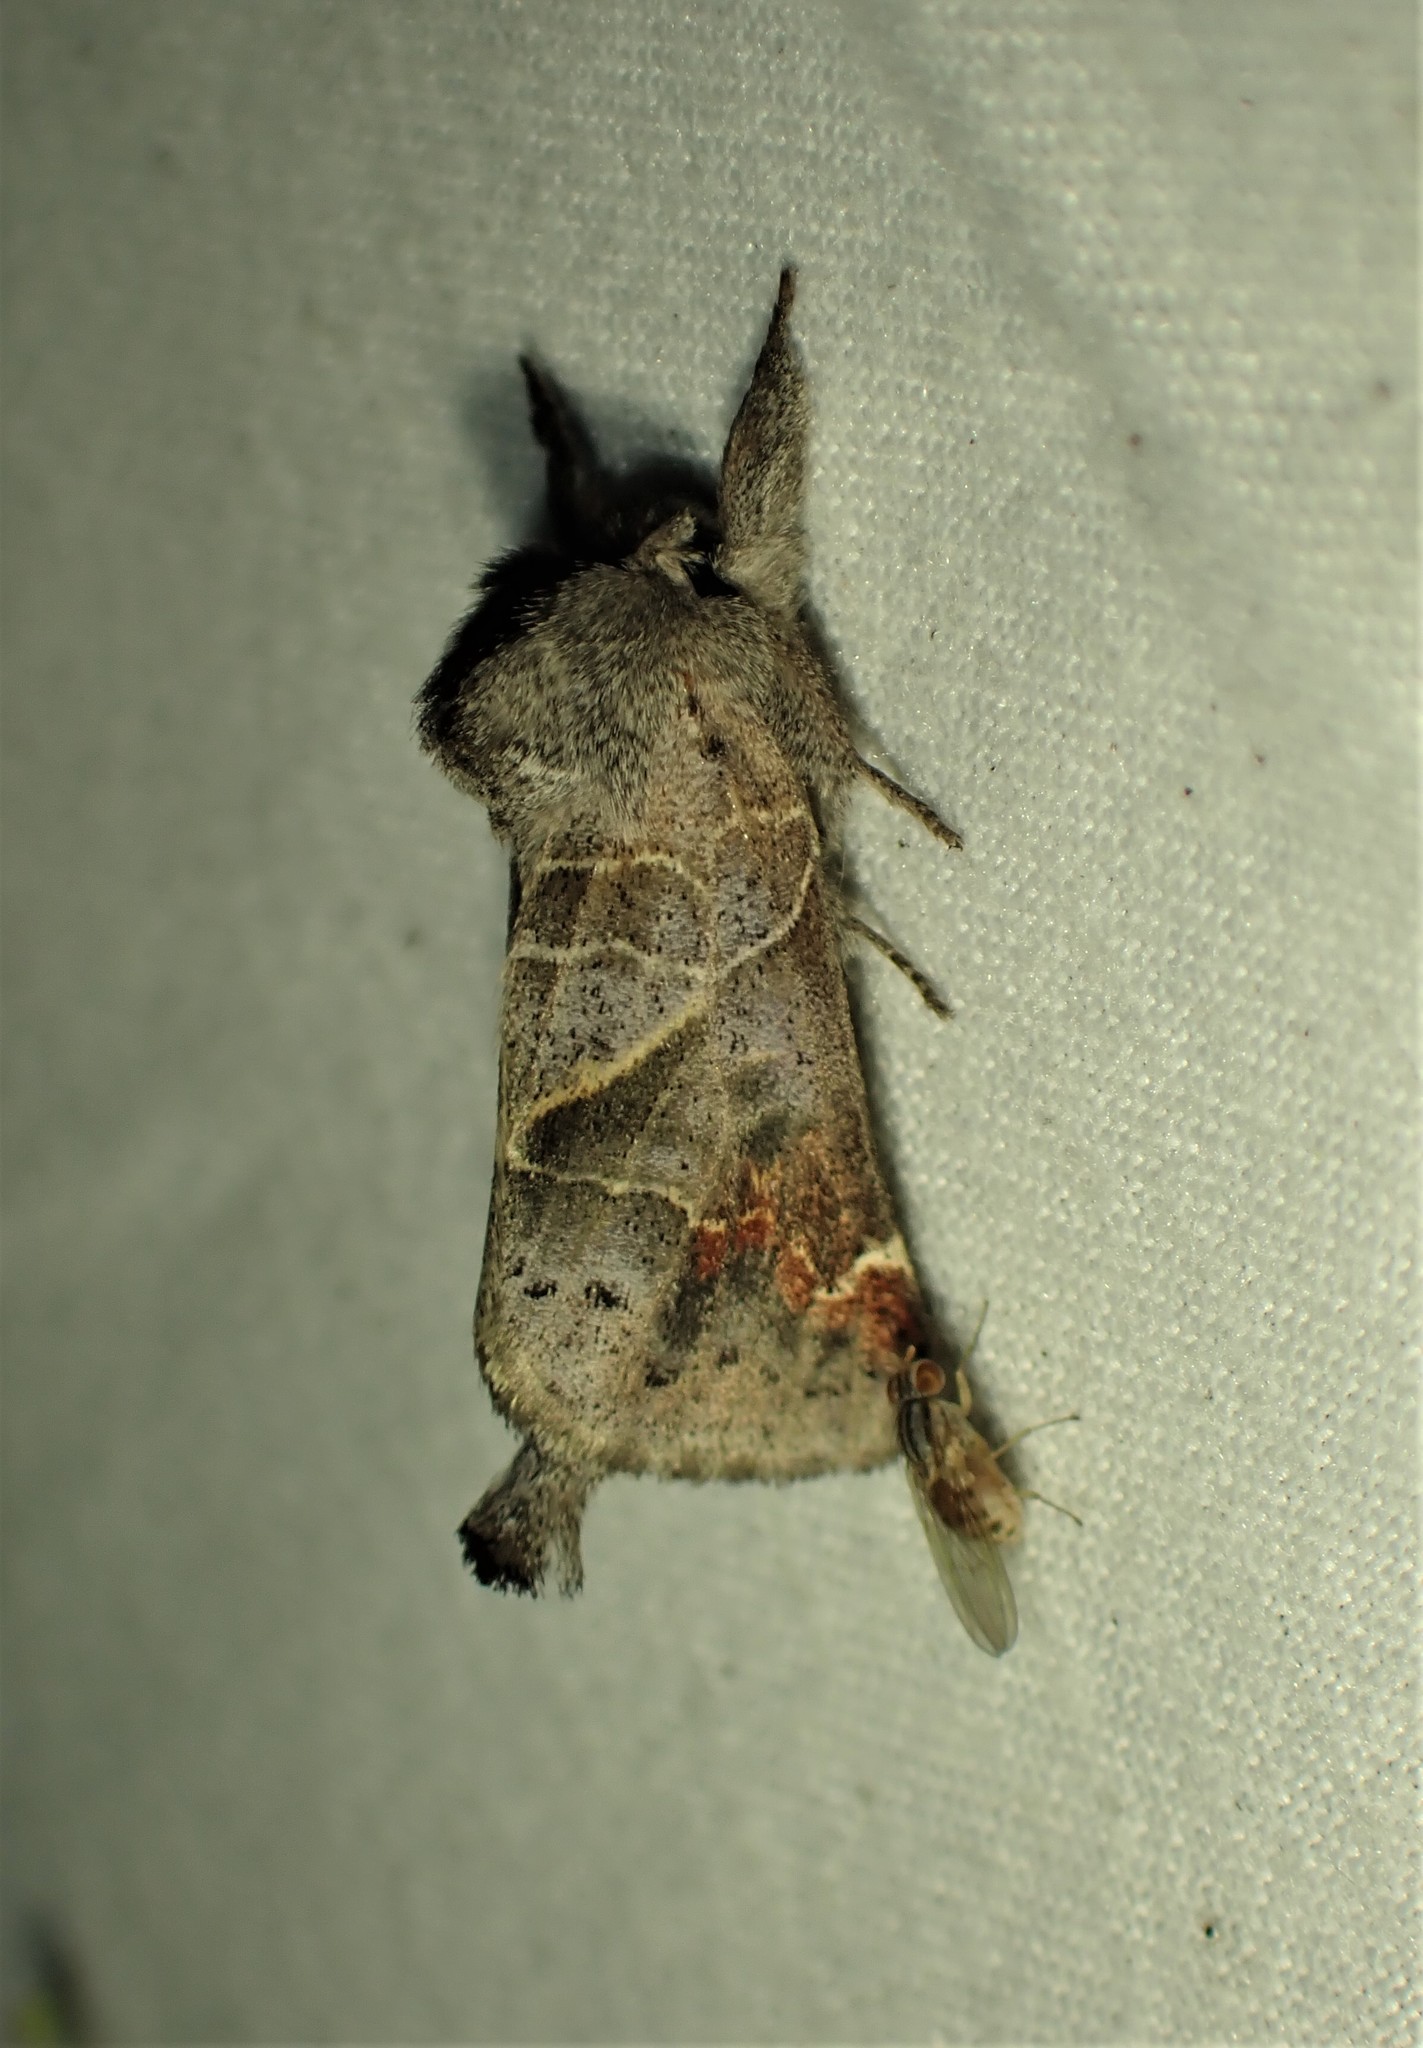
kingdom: Animalia
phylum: Arthropoda
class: Insecta
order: Lepidoptera
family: Notodontidae
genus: Clostera
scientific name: Clostera apicalis
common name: Apical prominent
